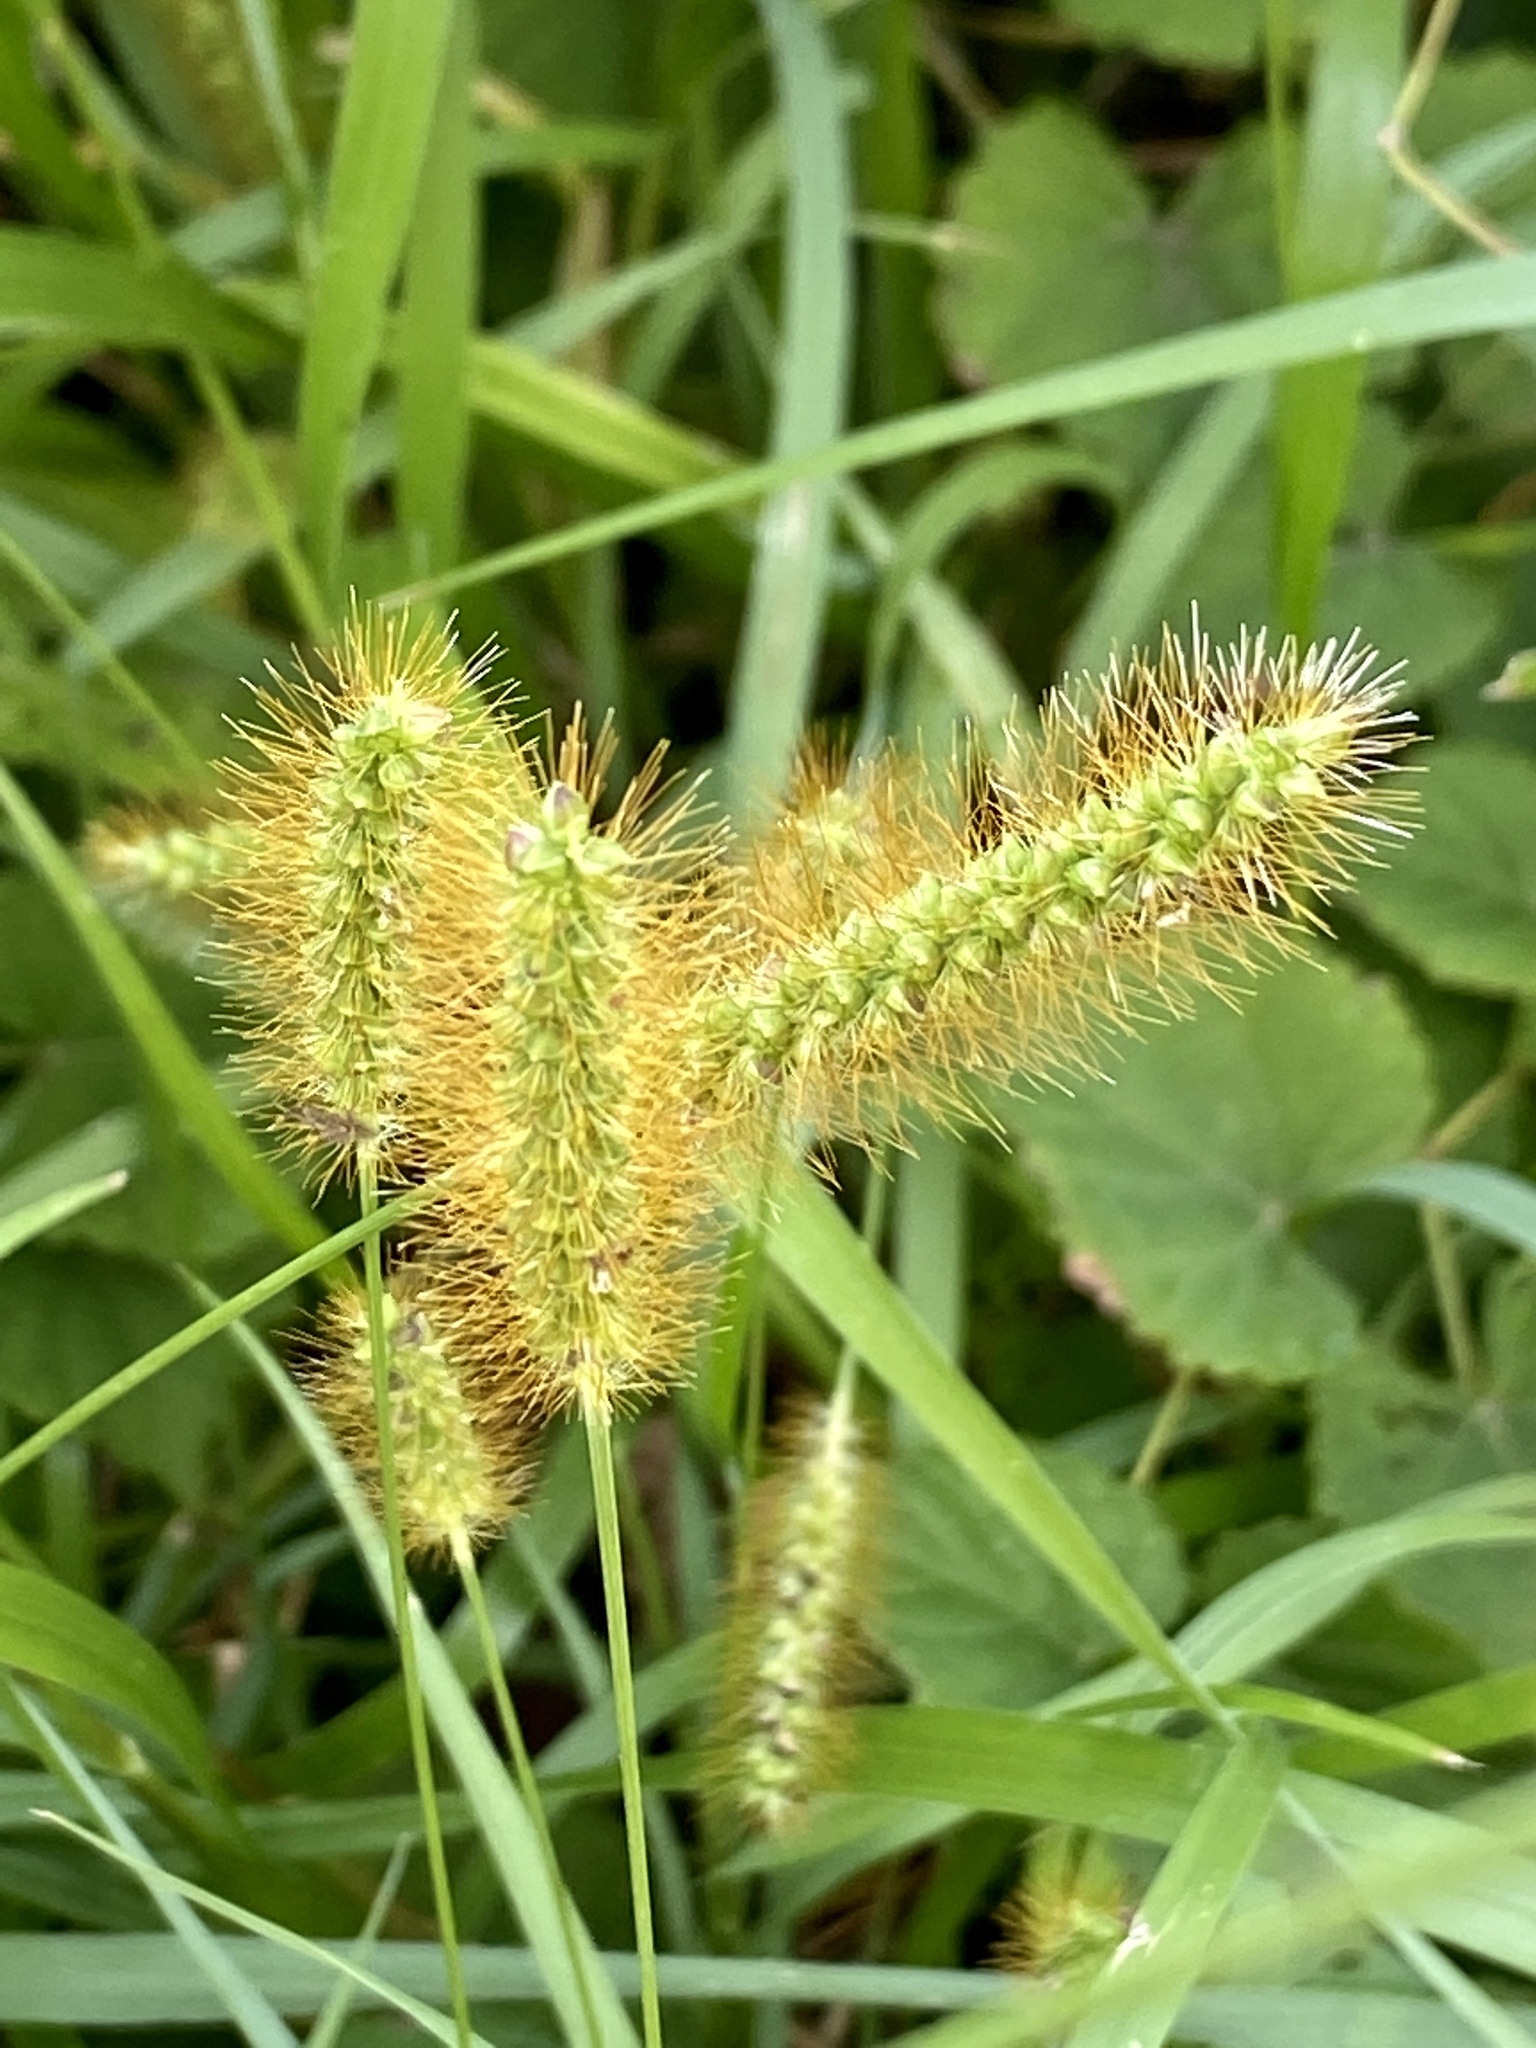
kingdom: Plantae
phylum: Tracheophyta
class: Liliopsida
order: Poales
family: Poaceae
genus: Setaria
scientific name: Setaria pumila
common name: Yellow bristle-grass
